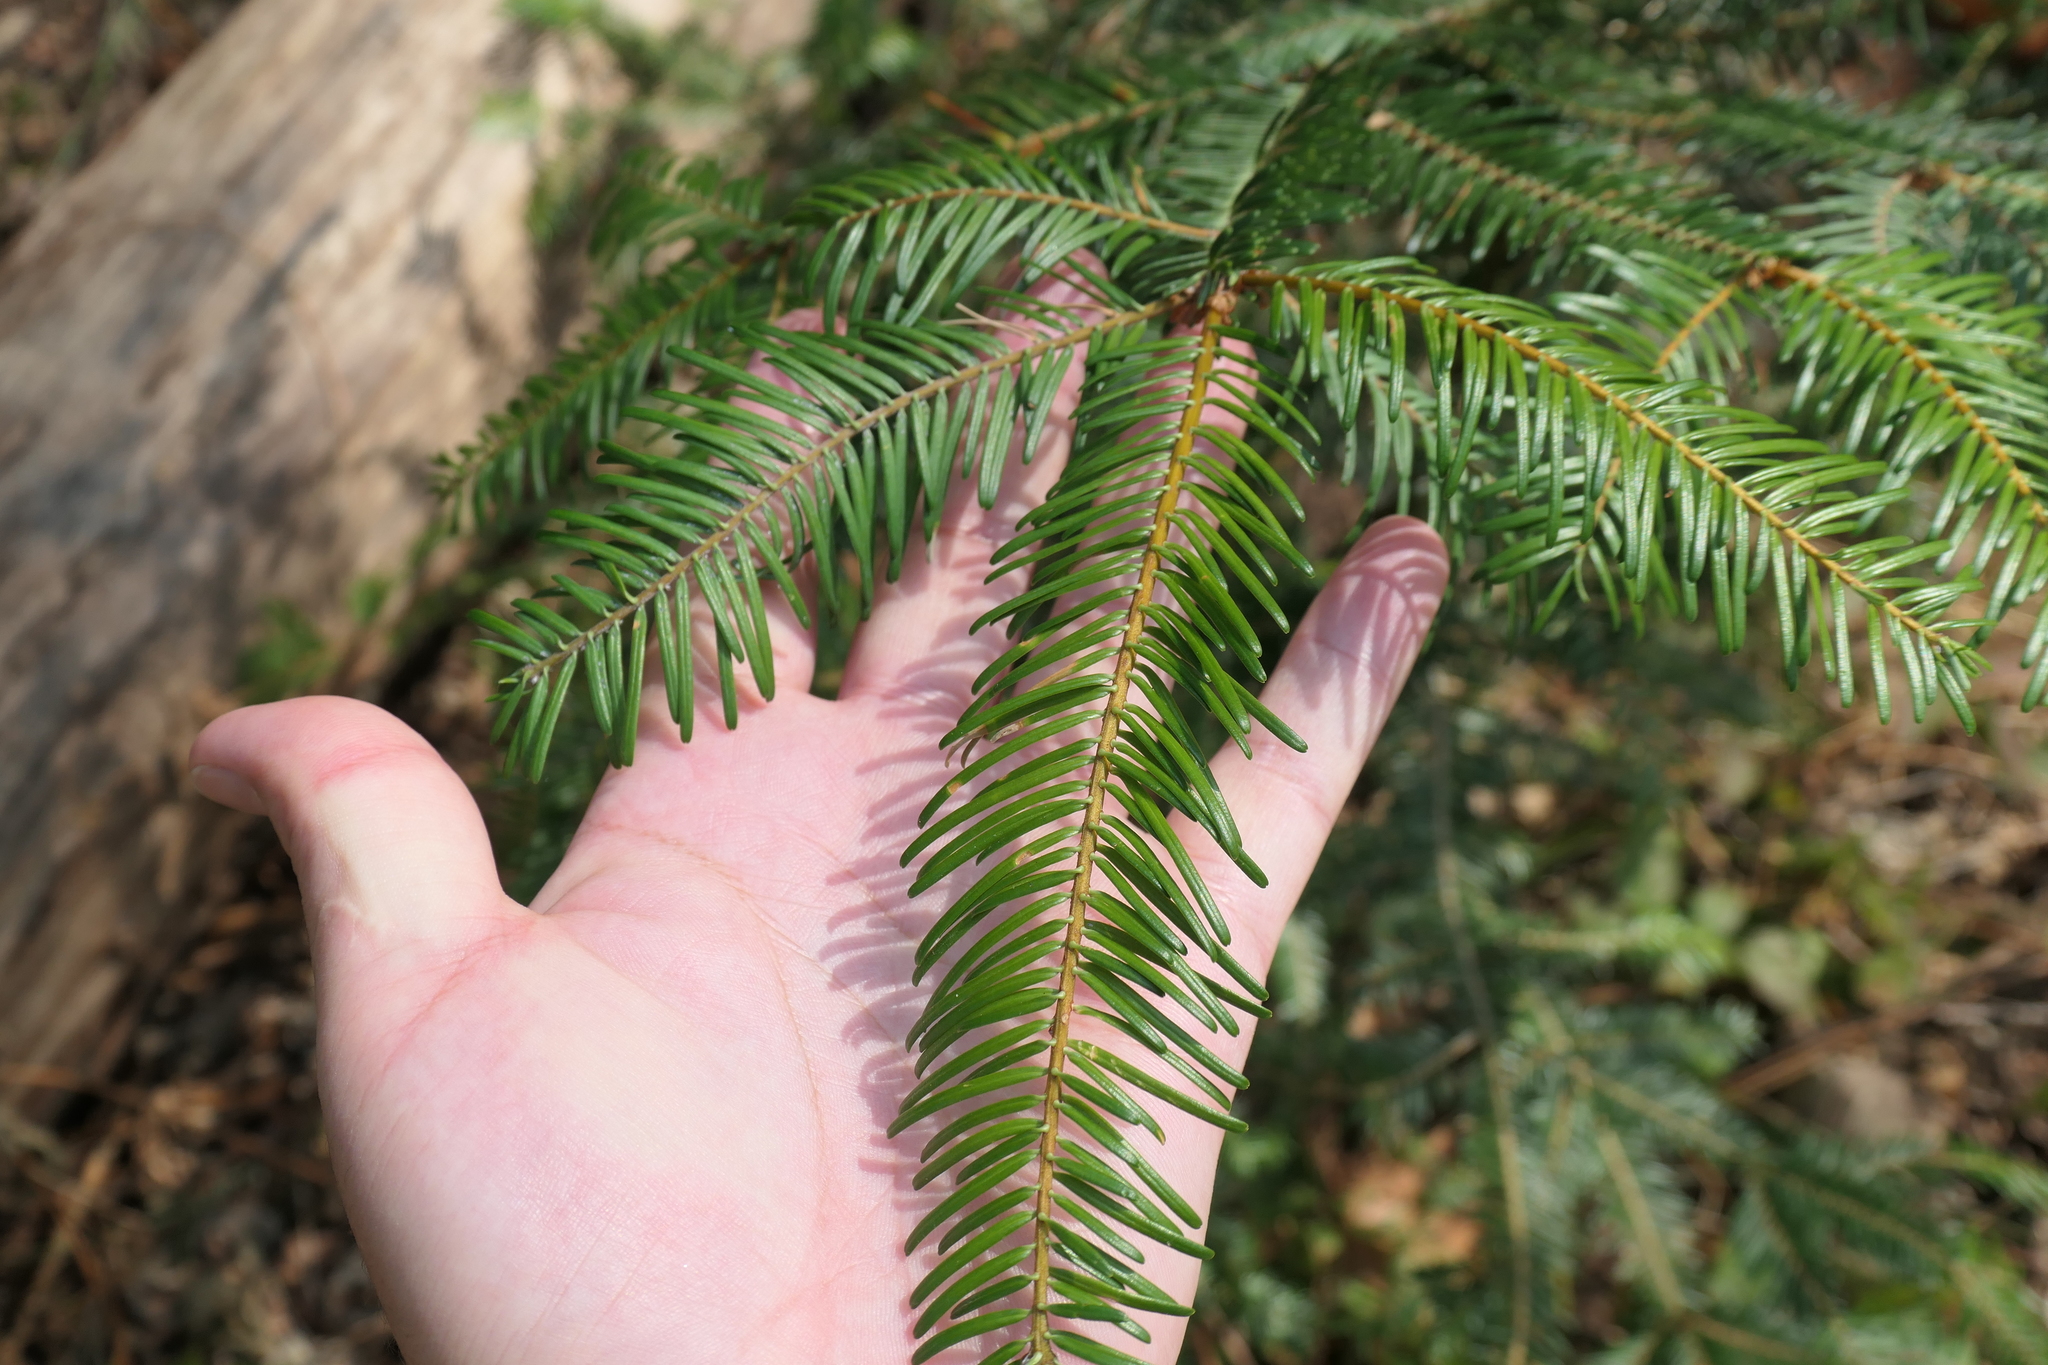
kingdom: Plantae
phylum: Tracheophyta
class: Pinopsida
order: Pinales
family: Pinaceae
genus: Abies
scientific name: Abies grandis
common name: Giant fir
